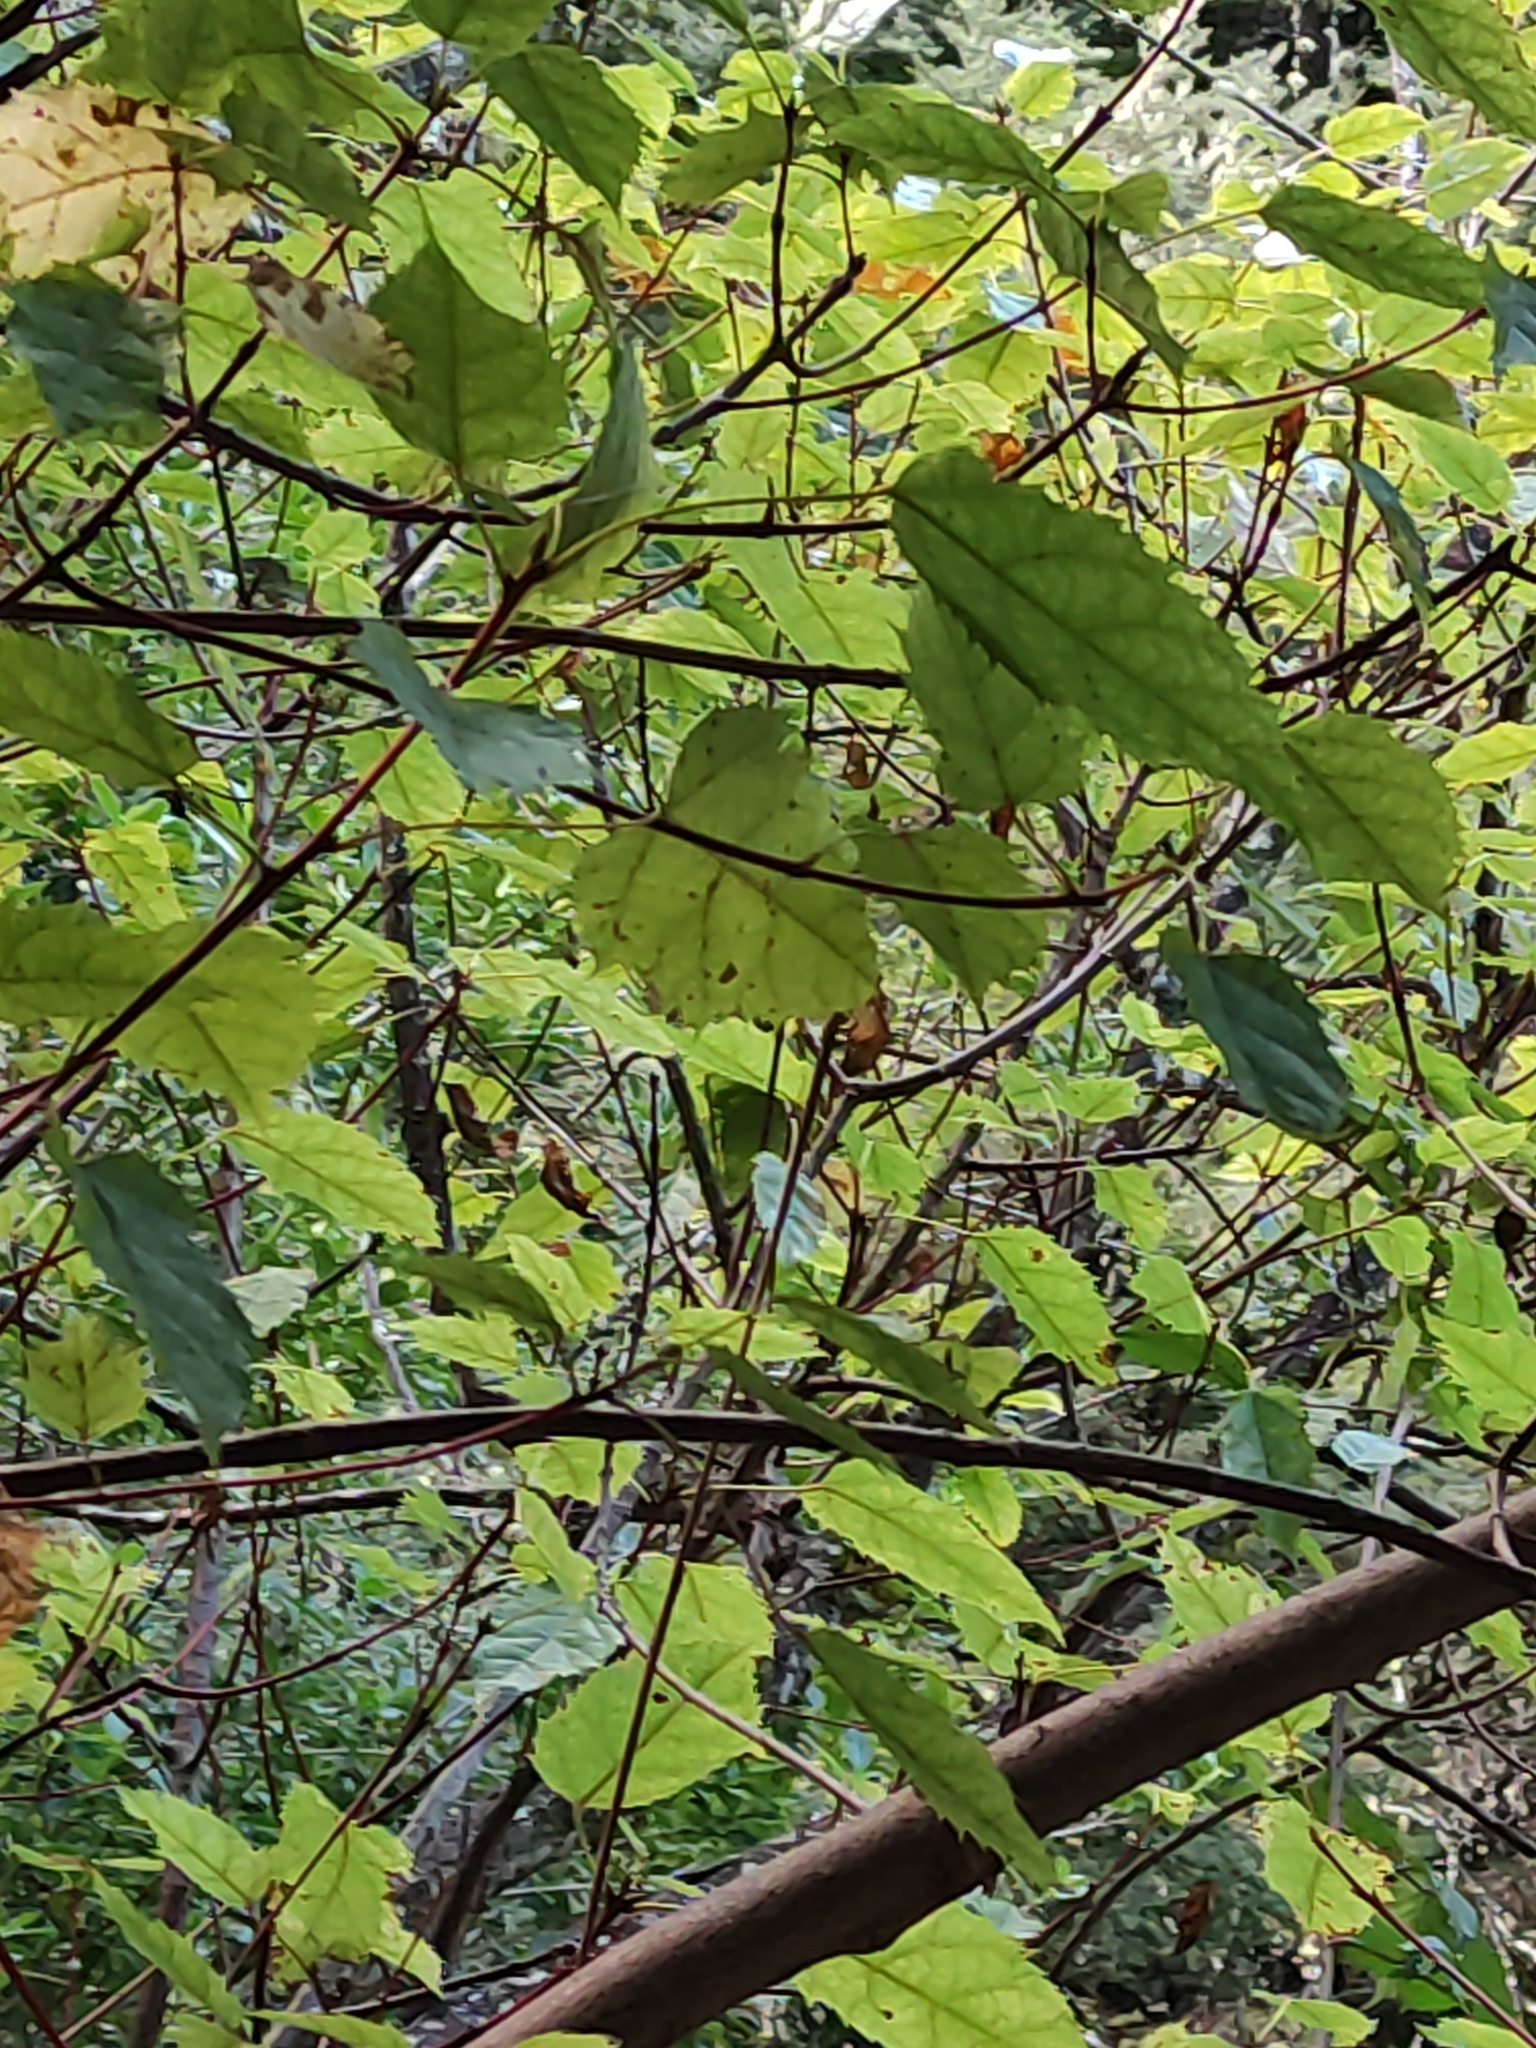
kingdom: Plantae
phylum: Tracheophyta
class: Magnoliopsida
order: Oxalidales
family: Elaeocarpaceae
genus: Aristotelia
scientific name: Aristotelia serrata
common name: New zealand wineberry
